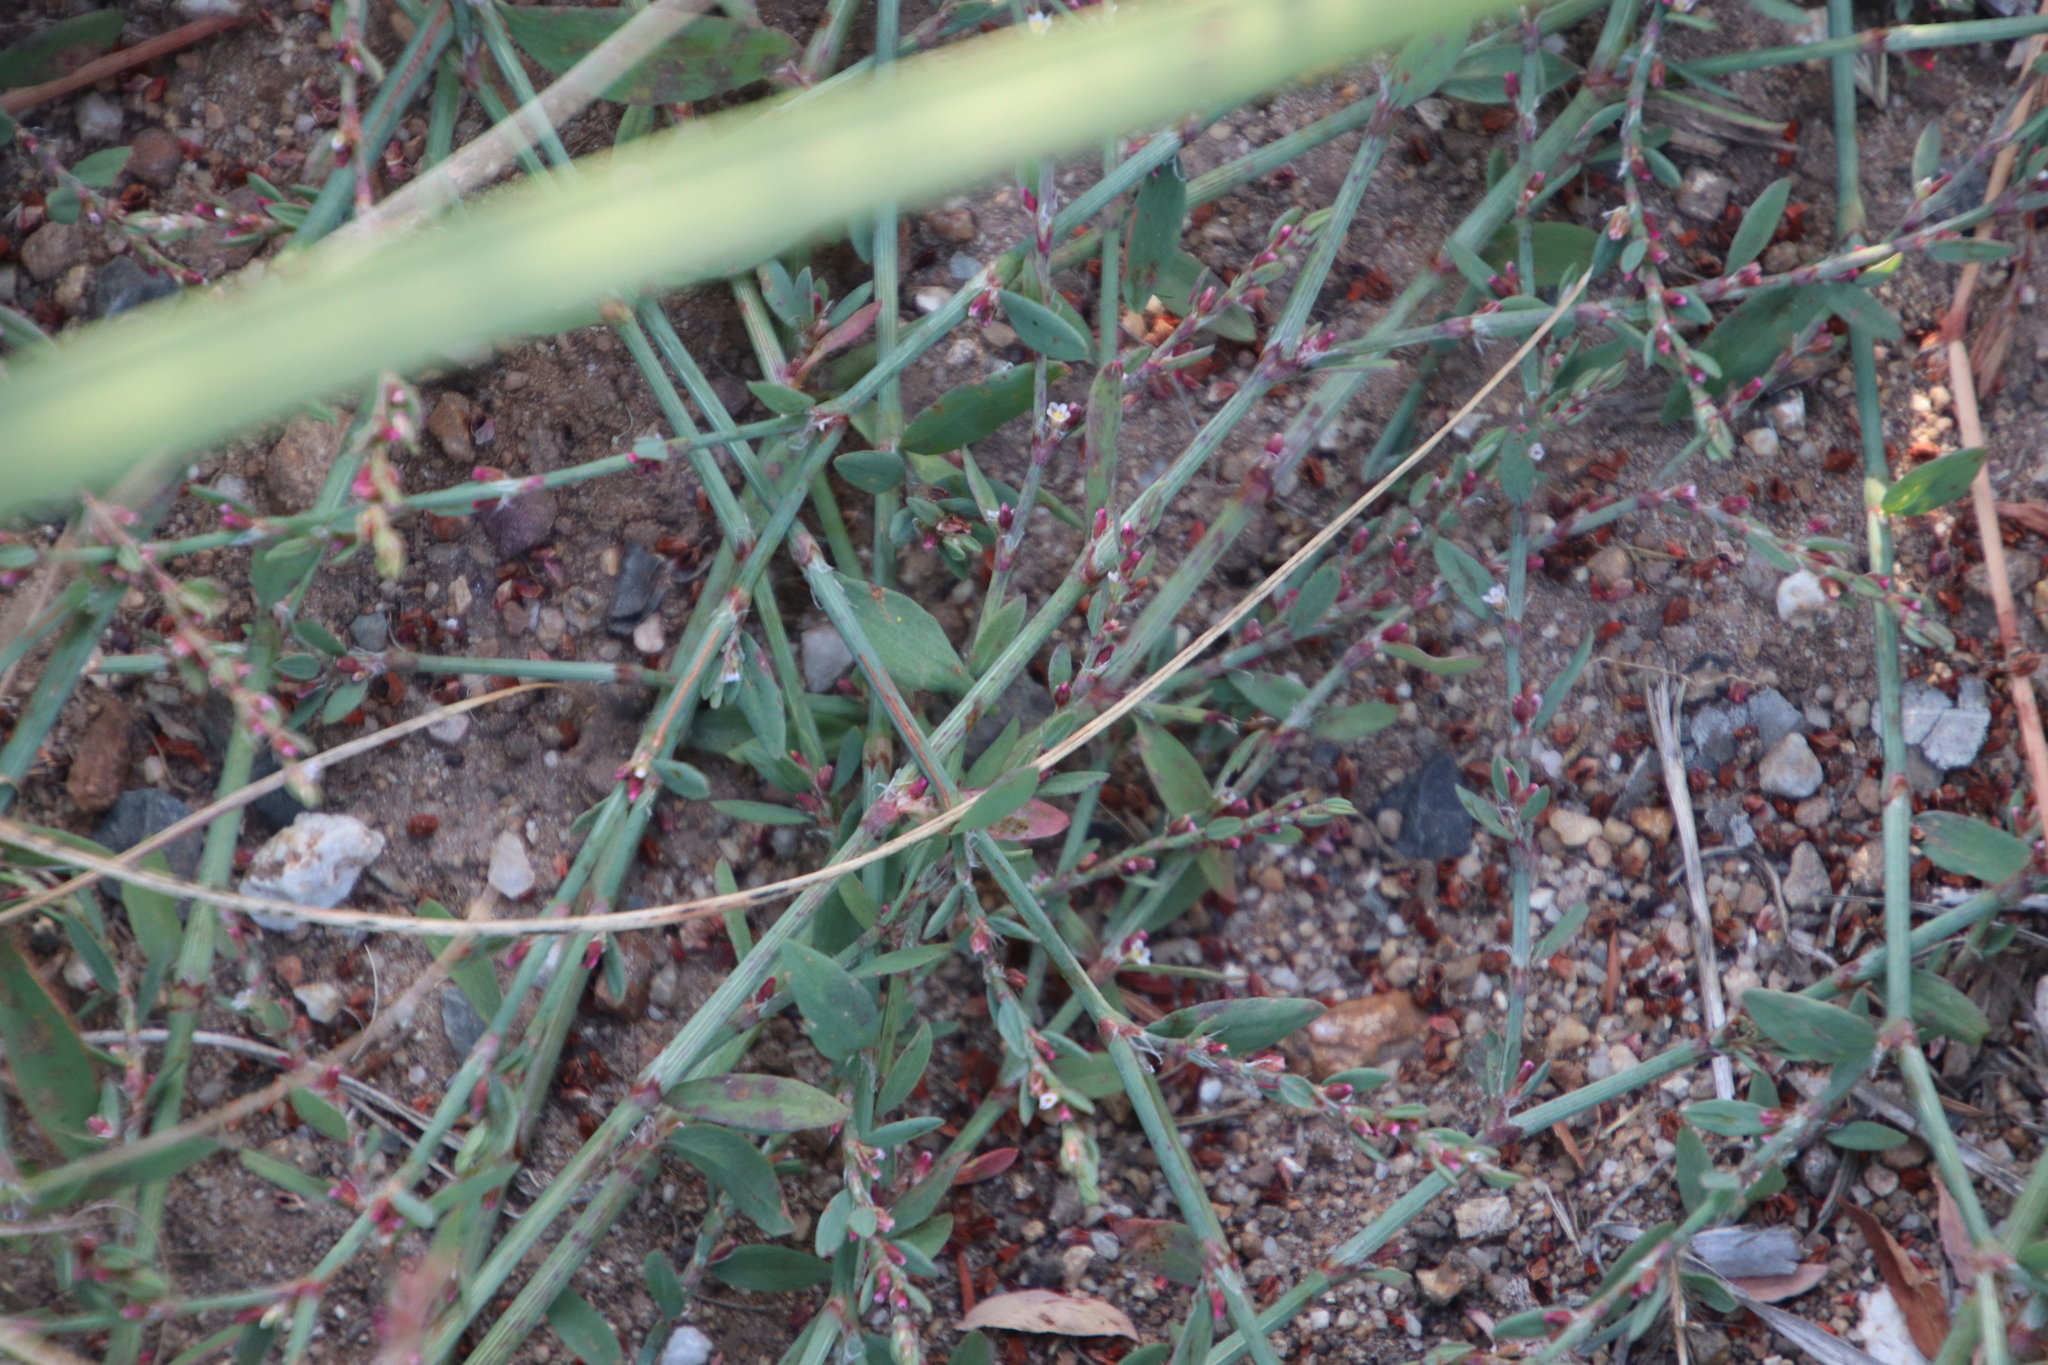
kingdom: Plantae
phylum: Tracheophyta
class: Magnoliopsida
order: Caryophyllales
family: Polygonaceae
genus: Polygonum
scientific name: Polygonum aviculare
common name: Prostrate knotweed
